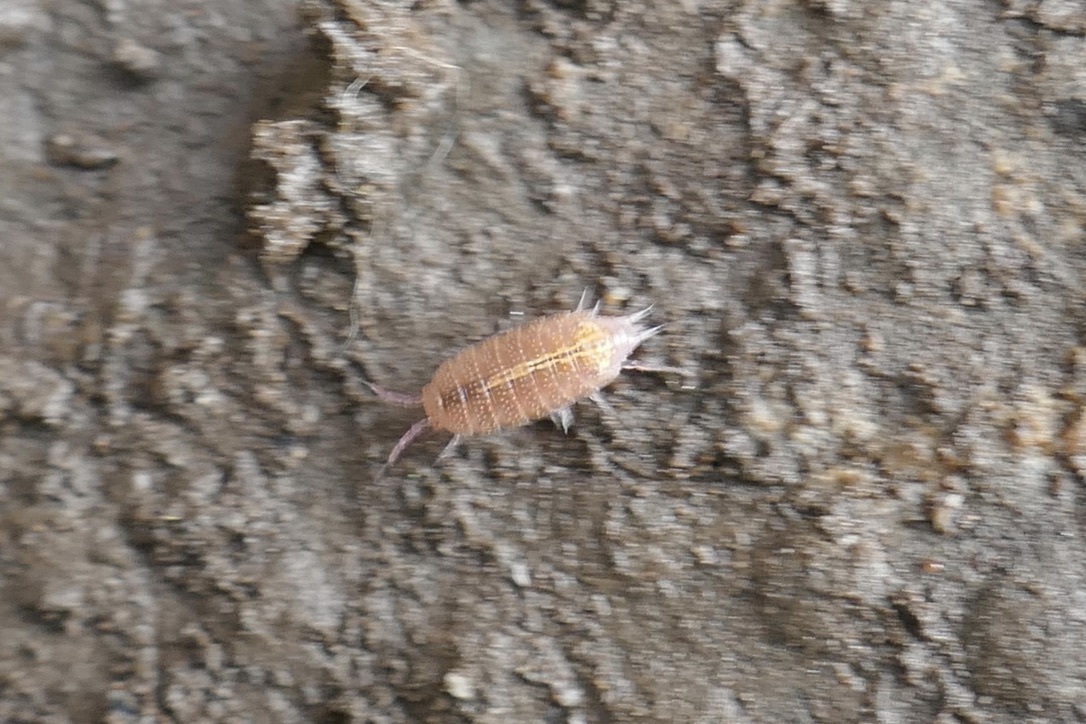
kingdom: Animalia
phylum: Arthropoda
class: Malacostraca
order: Isopoda
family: Trichoniscidae
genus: Androniscus
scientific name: Androniscus dentiger
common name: Rosy woodlouse
